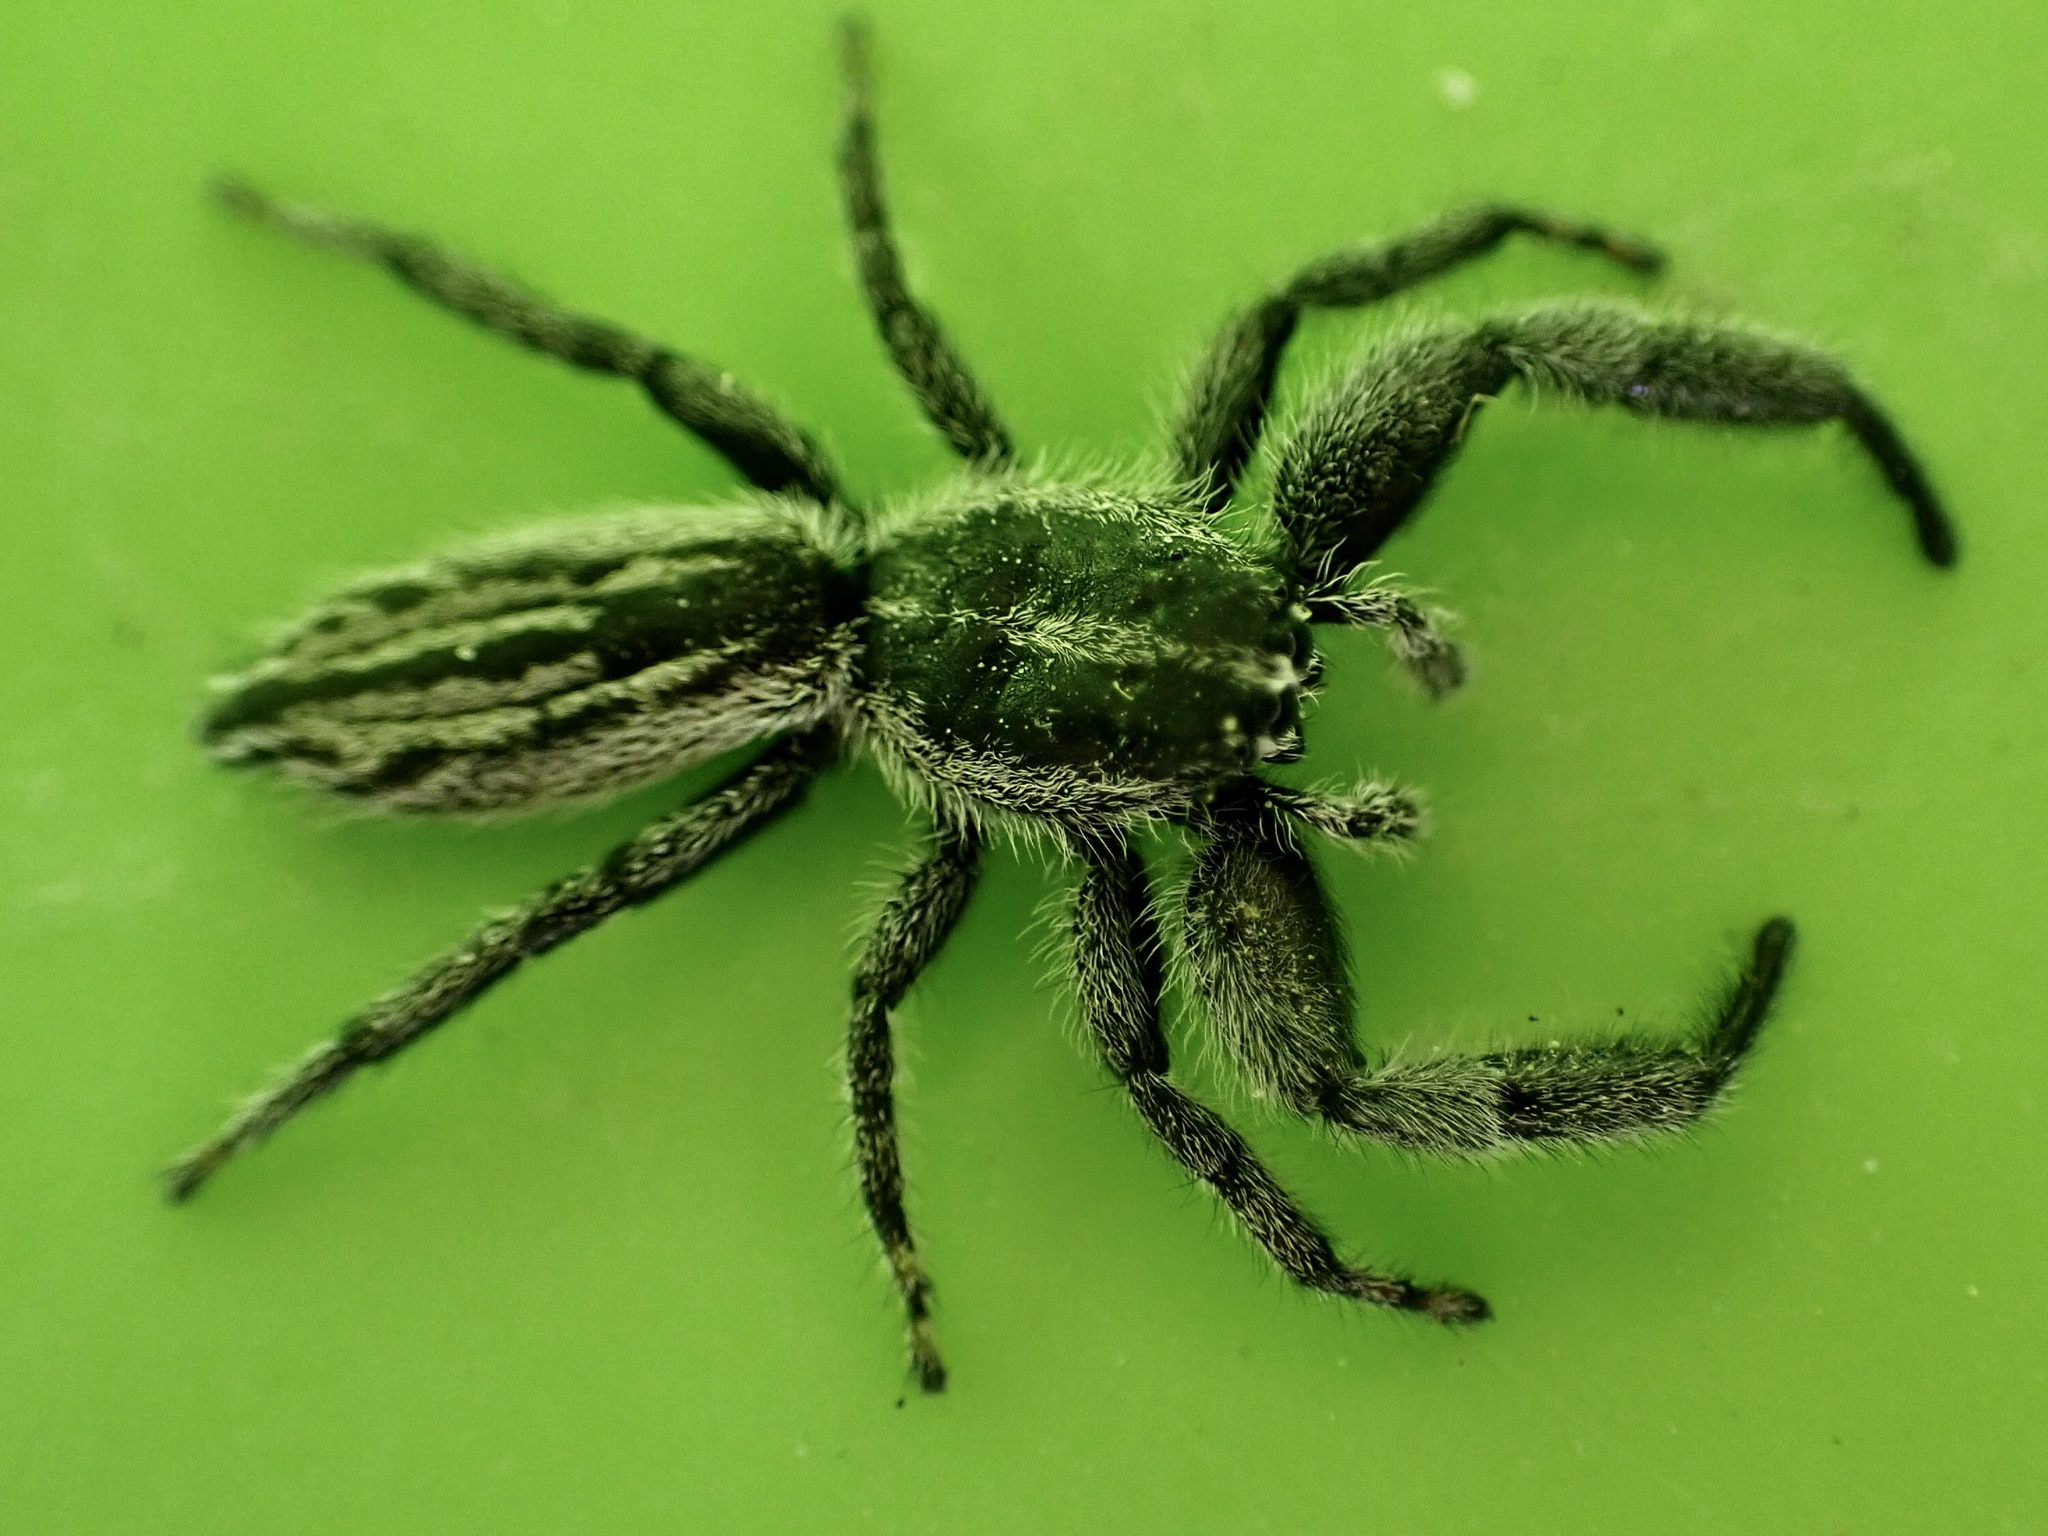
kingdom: Animalia
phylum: Arthropoda
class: Arachnida
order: Araneae
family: Salticidae
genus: Holoplatys
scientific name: Holoplatys apressus
